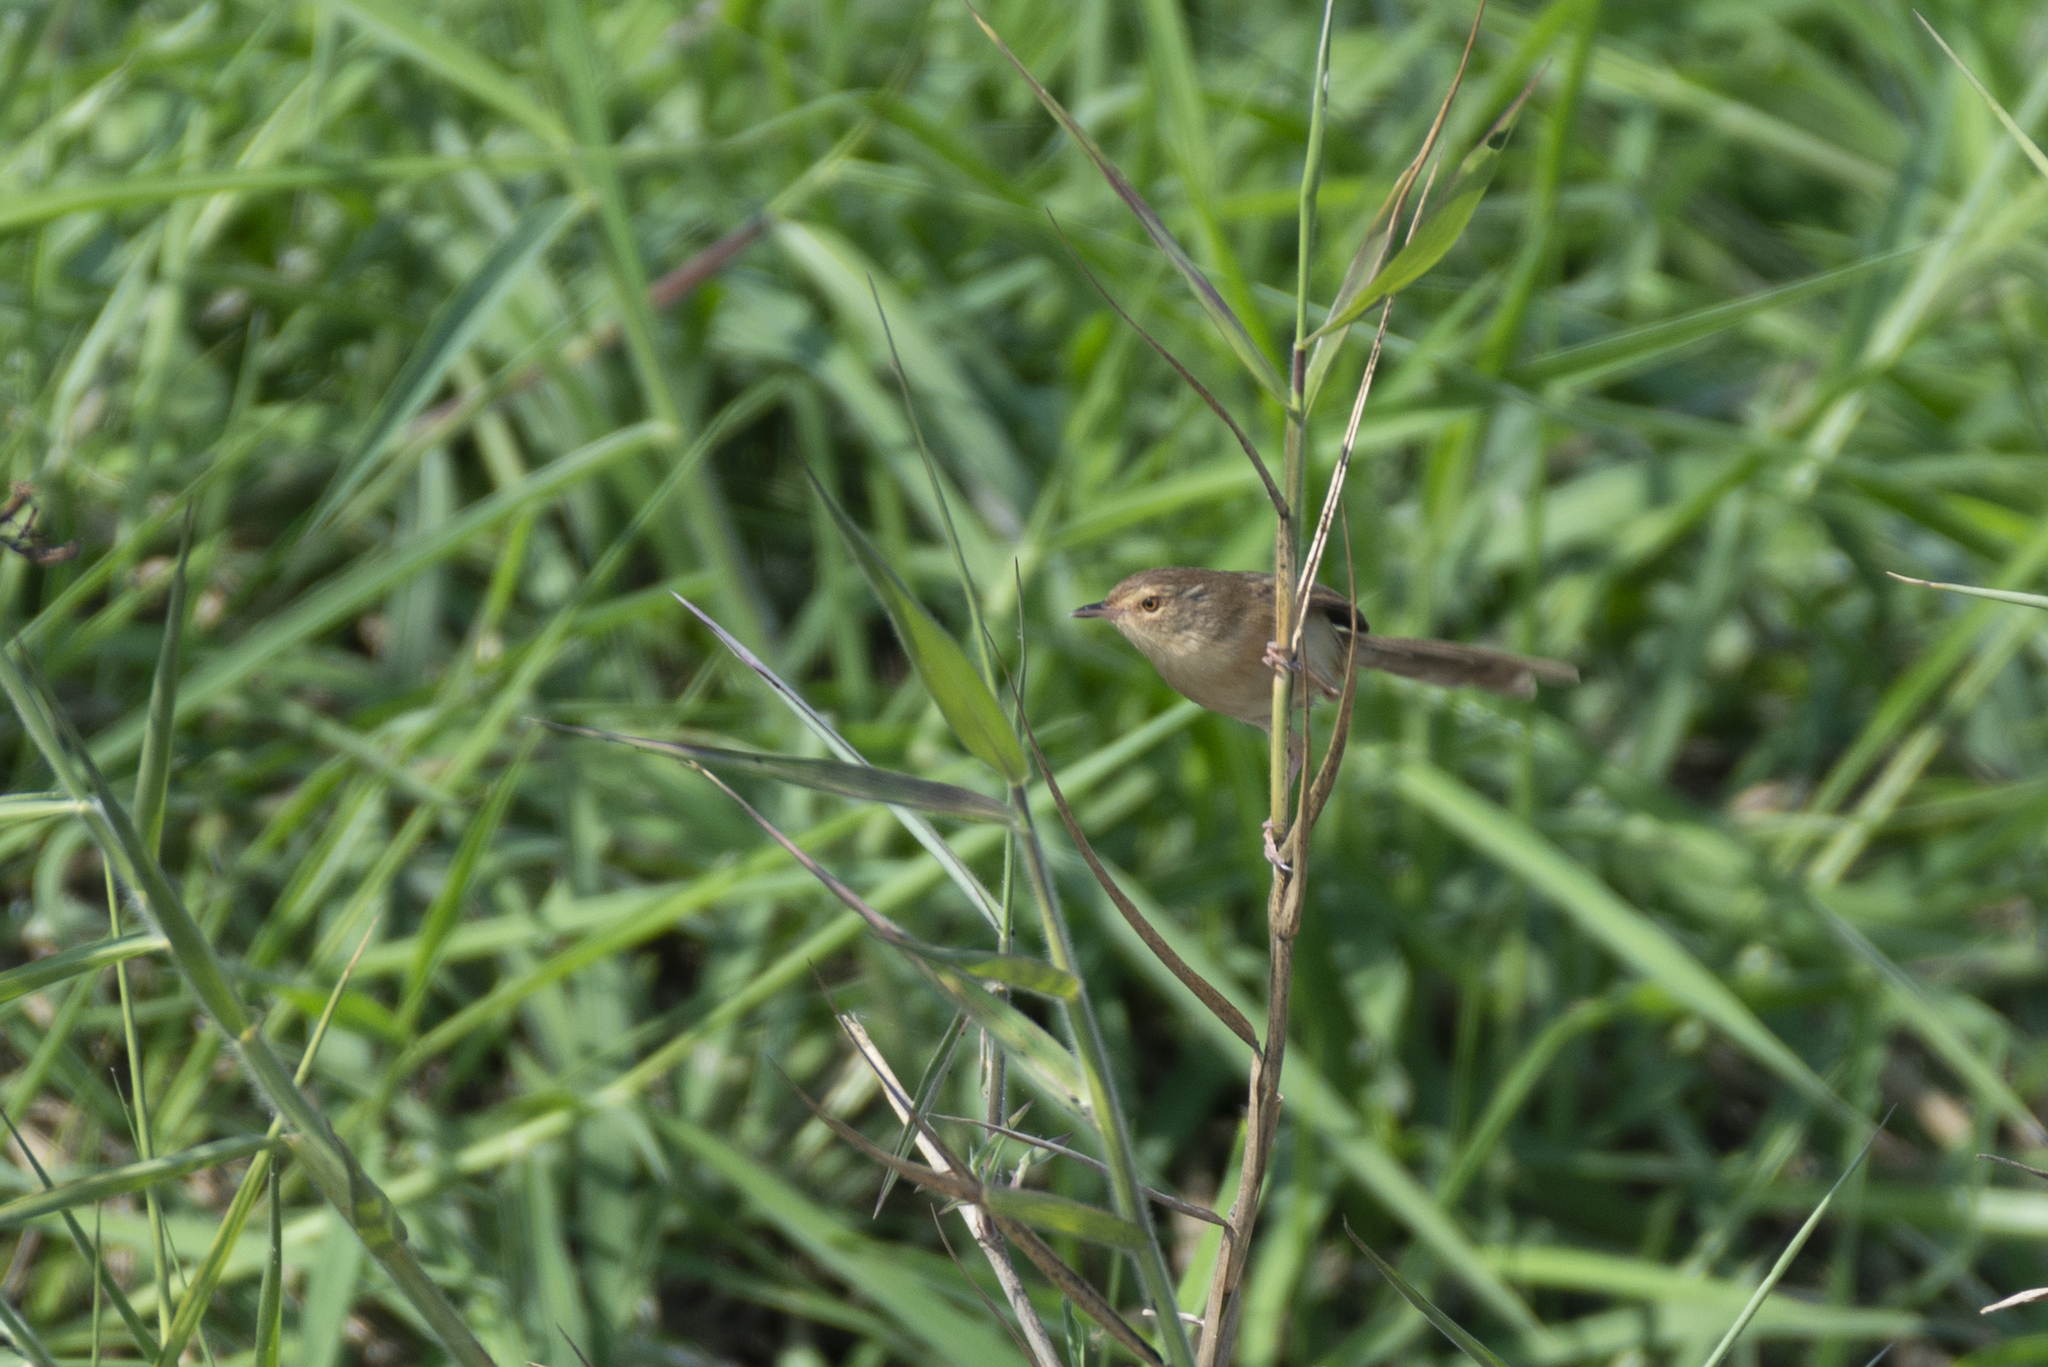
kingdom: Animalia
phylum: Chordata
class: Aves
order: Passeriformes
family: Cisticolidae
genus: Prinia
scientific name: Prinia inornata
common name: Plain prinia
